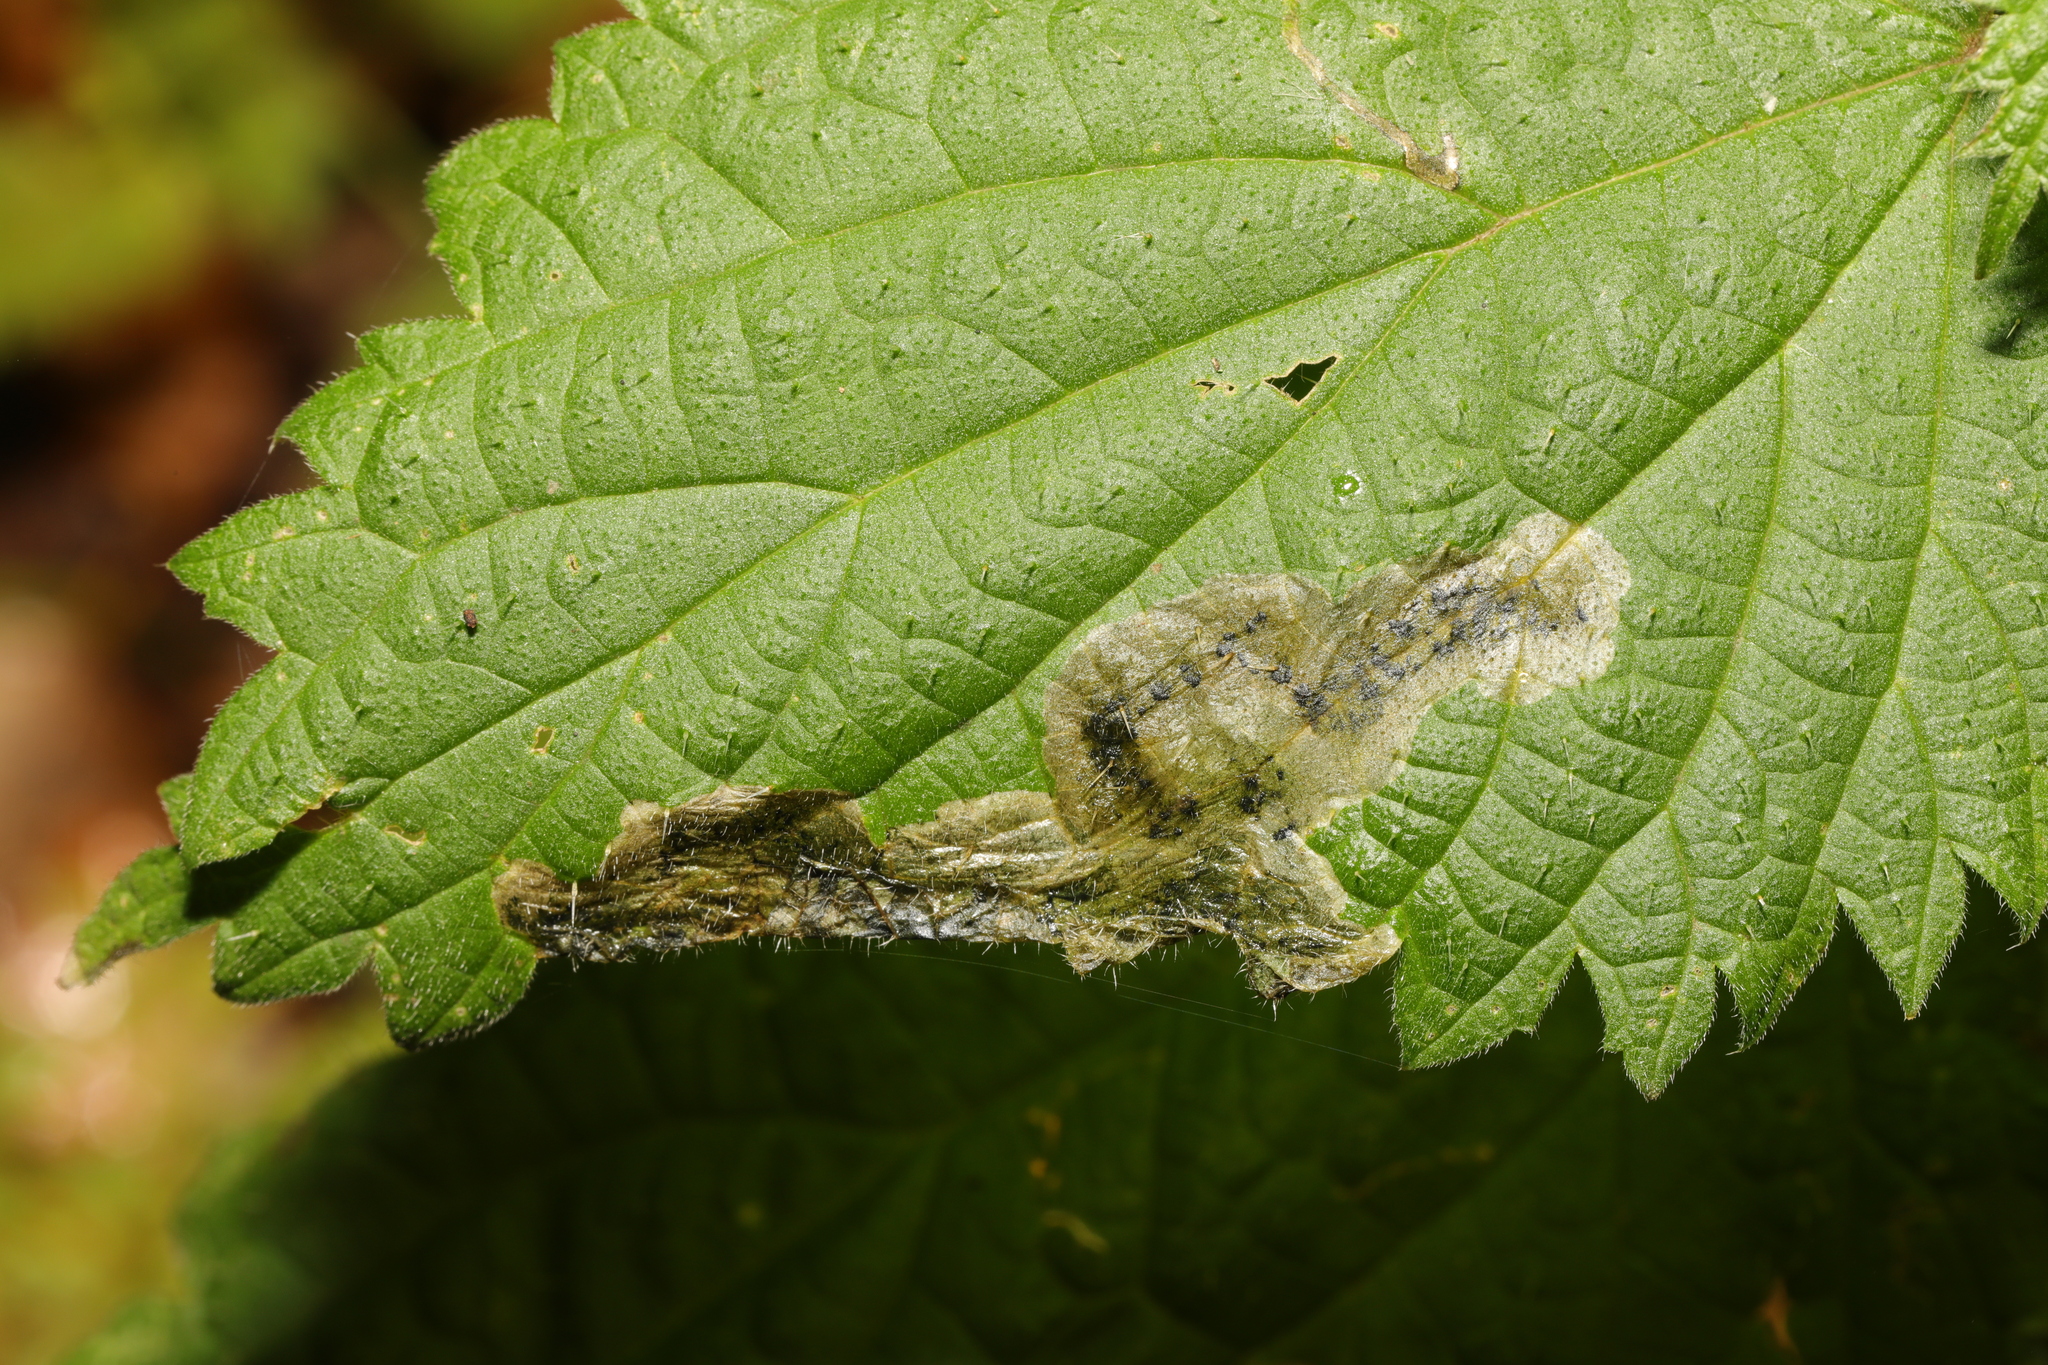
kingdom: Animalia
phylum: Arthropoda
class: Insecta
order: Diptera
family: Agromyzidae
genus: Agromyza
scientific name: Agromyza anthracina
